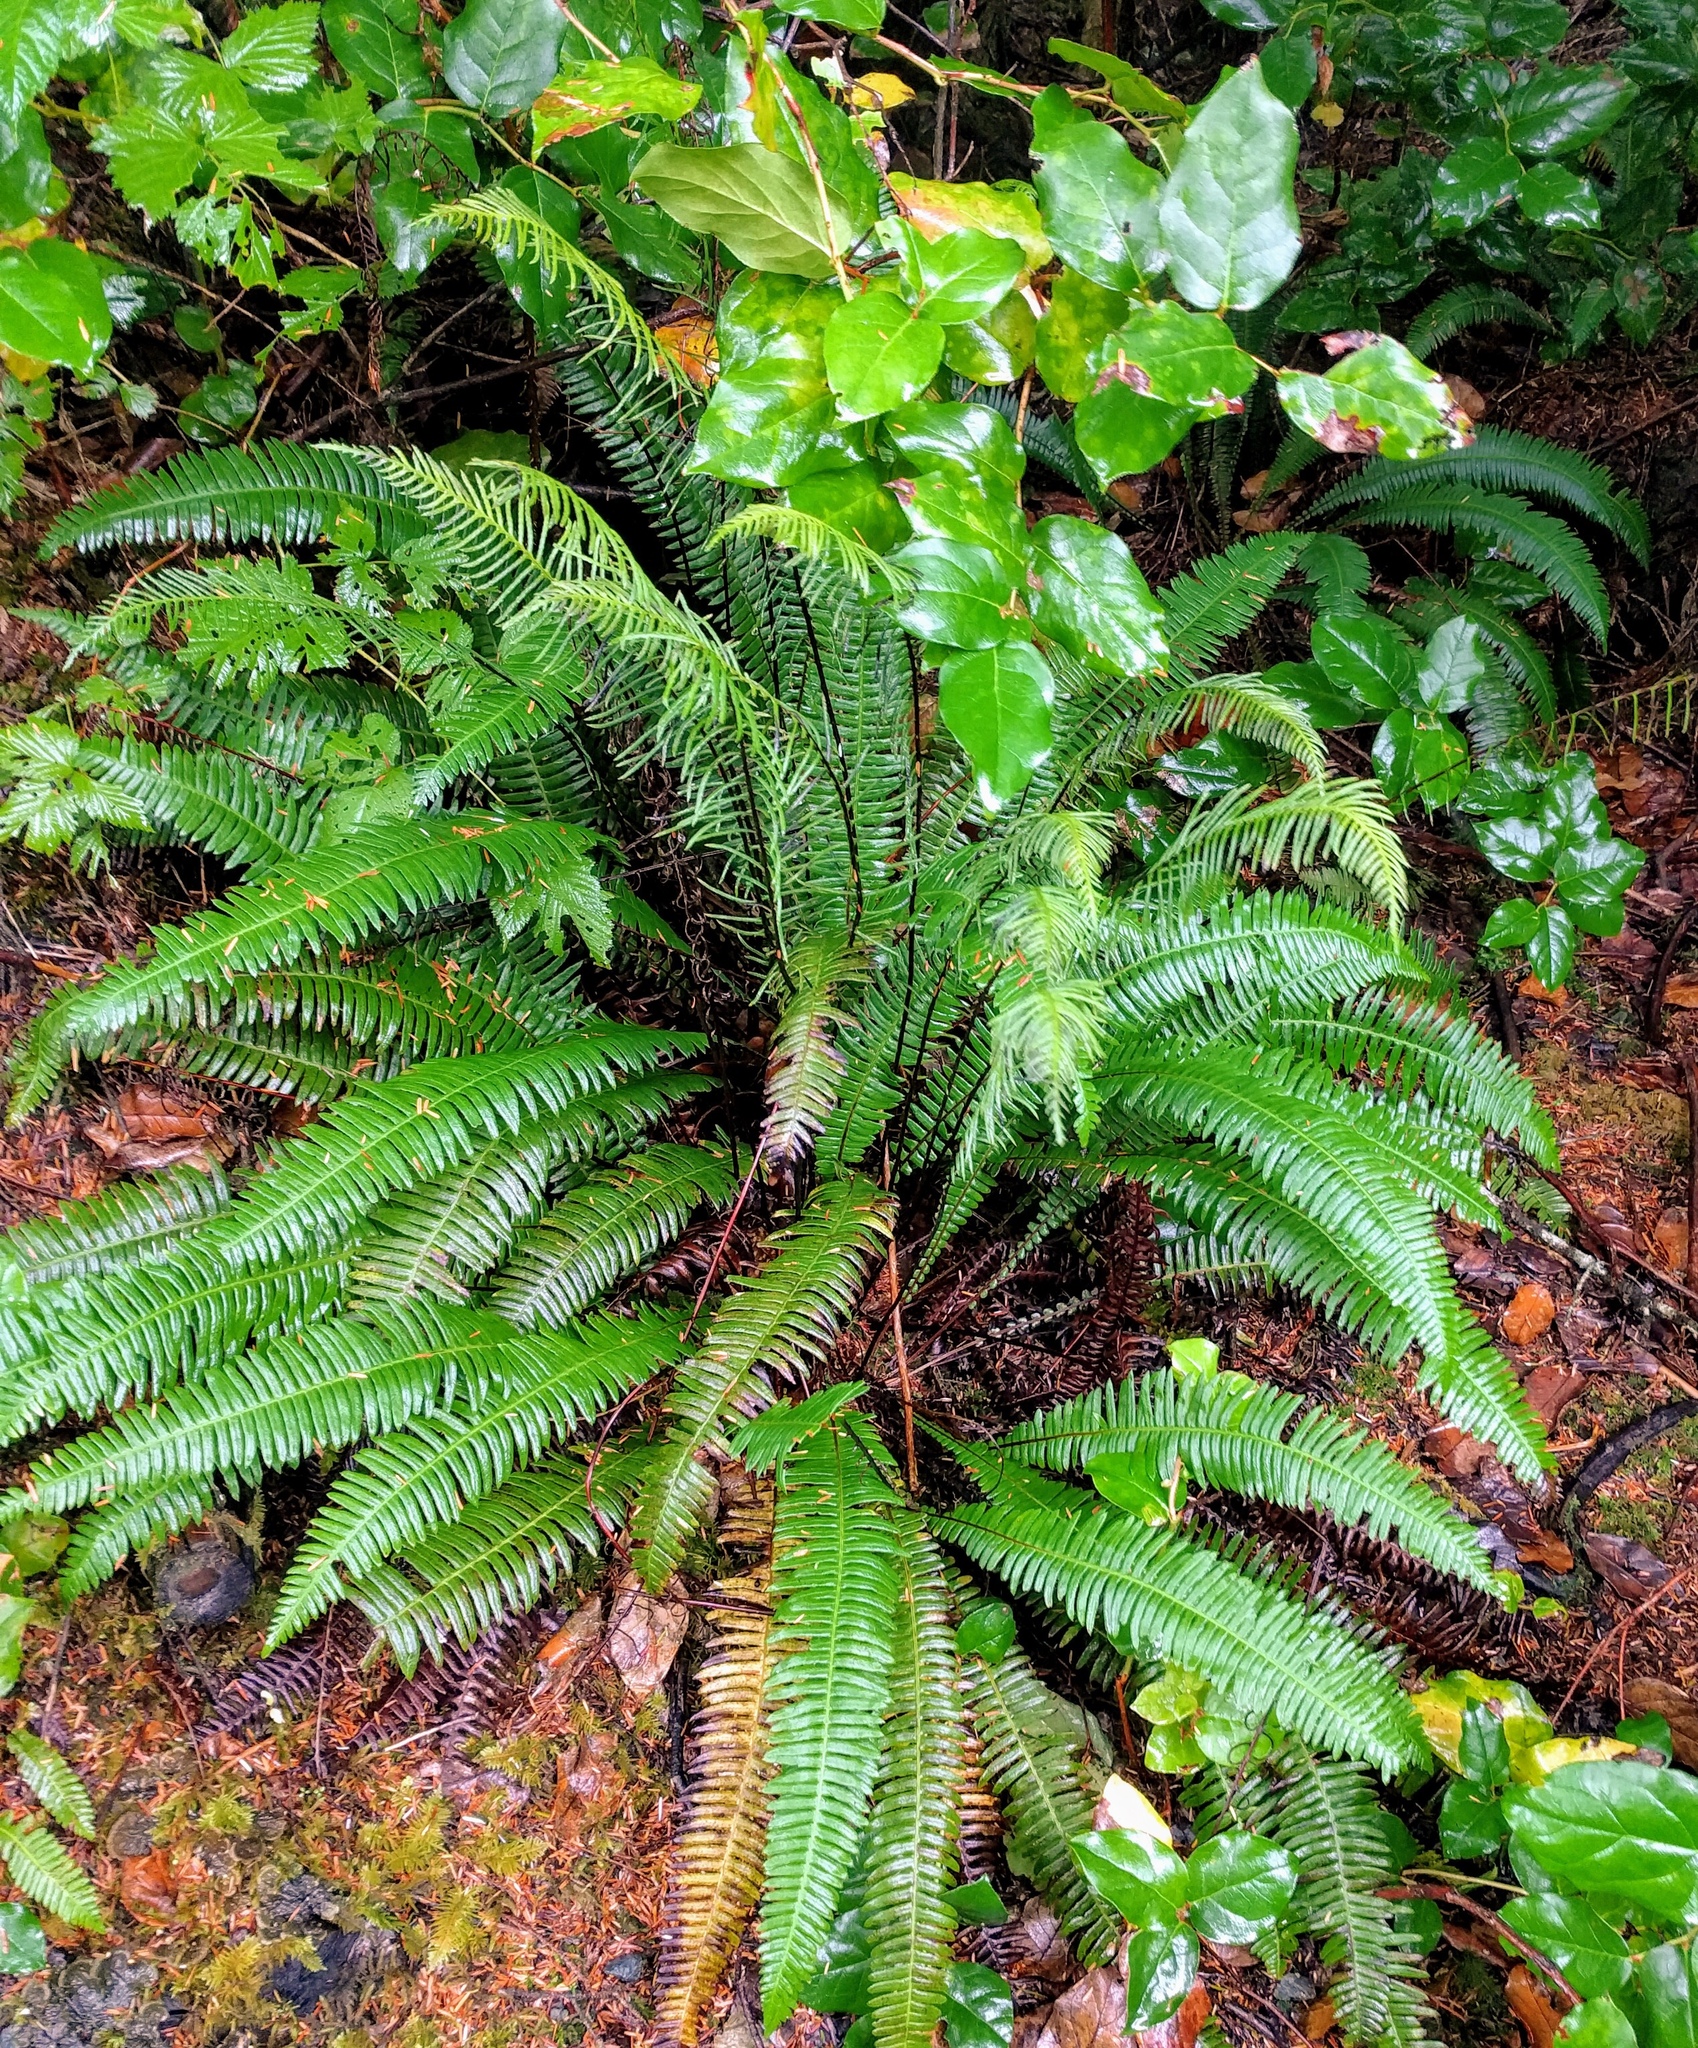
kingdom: Plantae
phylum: Tracheophyta
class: Polypodiopsida
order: Polypodiales
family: Blechnaceae
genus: Struthiopteris
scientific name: Struthiopteris spicant
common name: Deer fern
